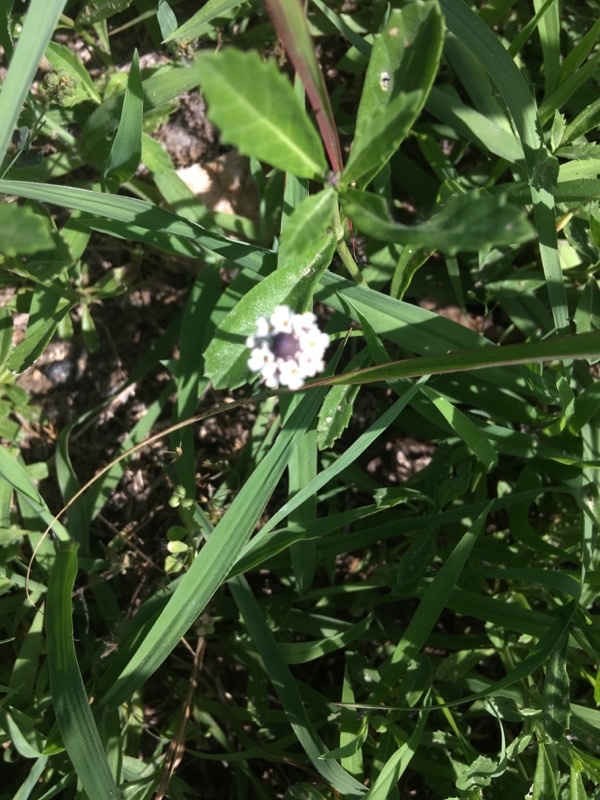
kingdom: Plantae
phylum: Tracheophyta
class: Magnoliopsida
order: Lamiales
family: Verbenaceae
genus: Phyla
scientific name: Phyla nodiflora
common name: Frogfruit
